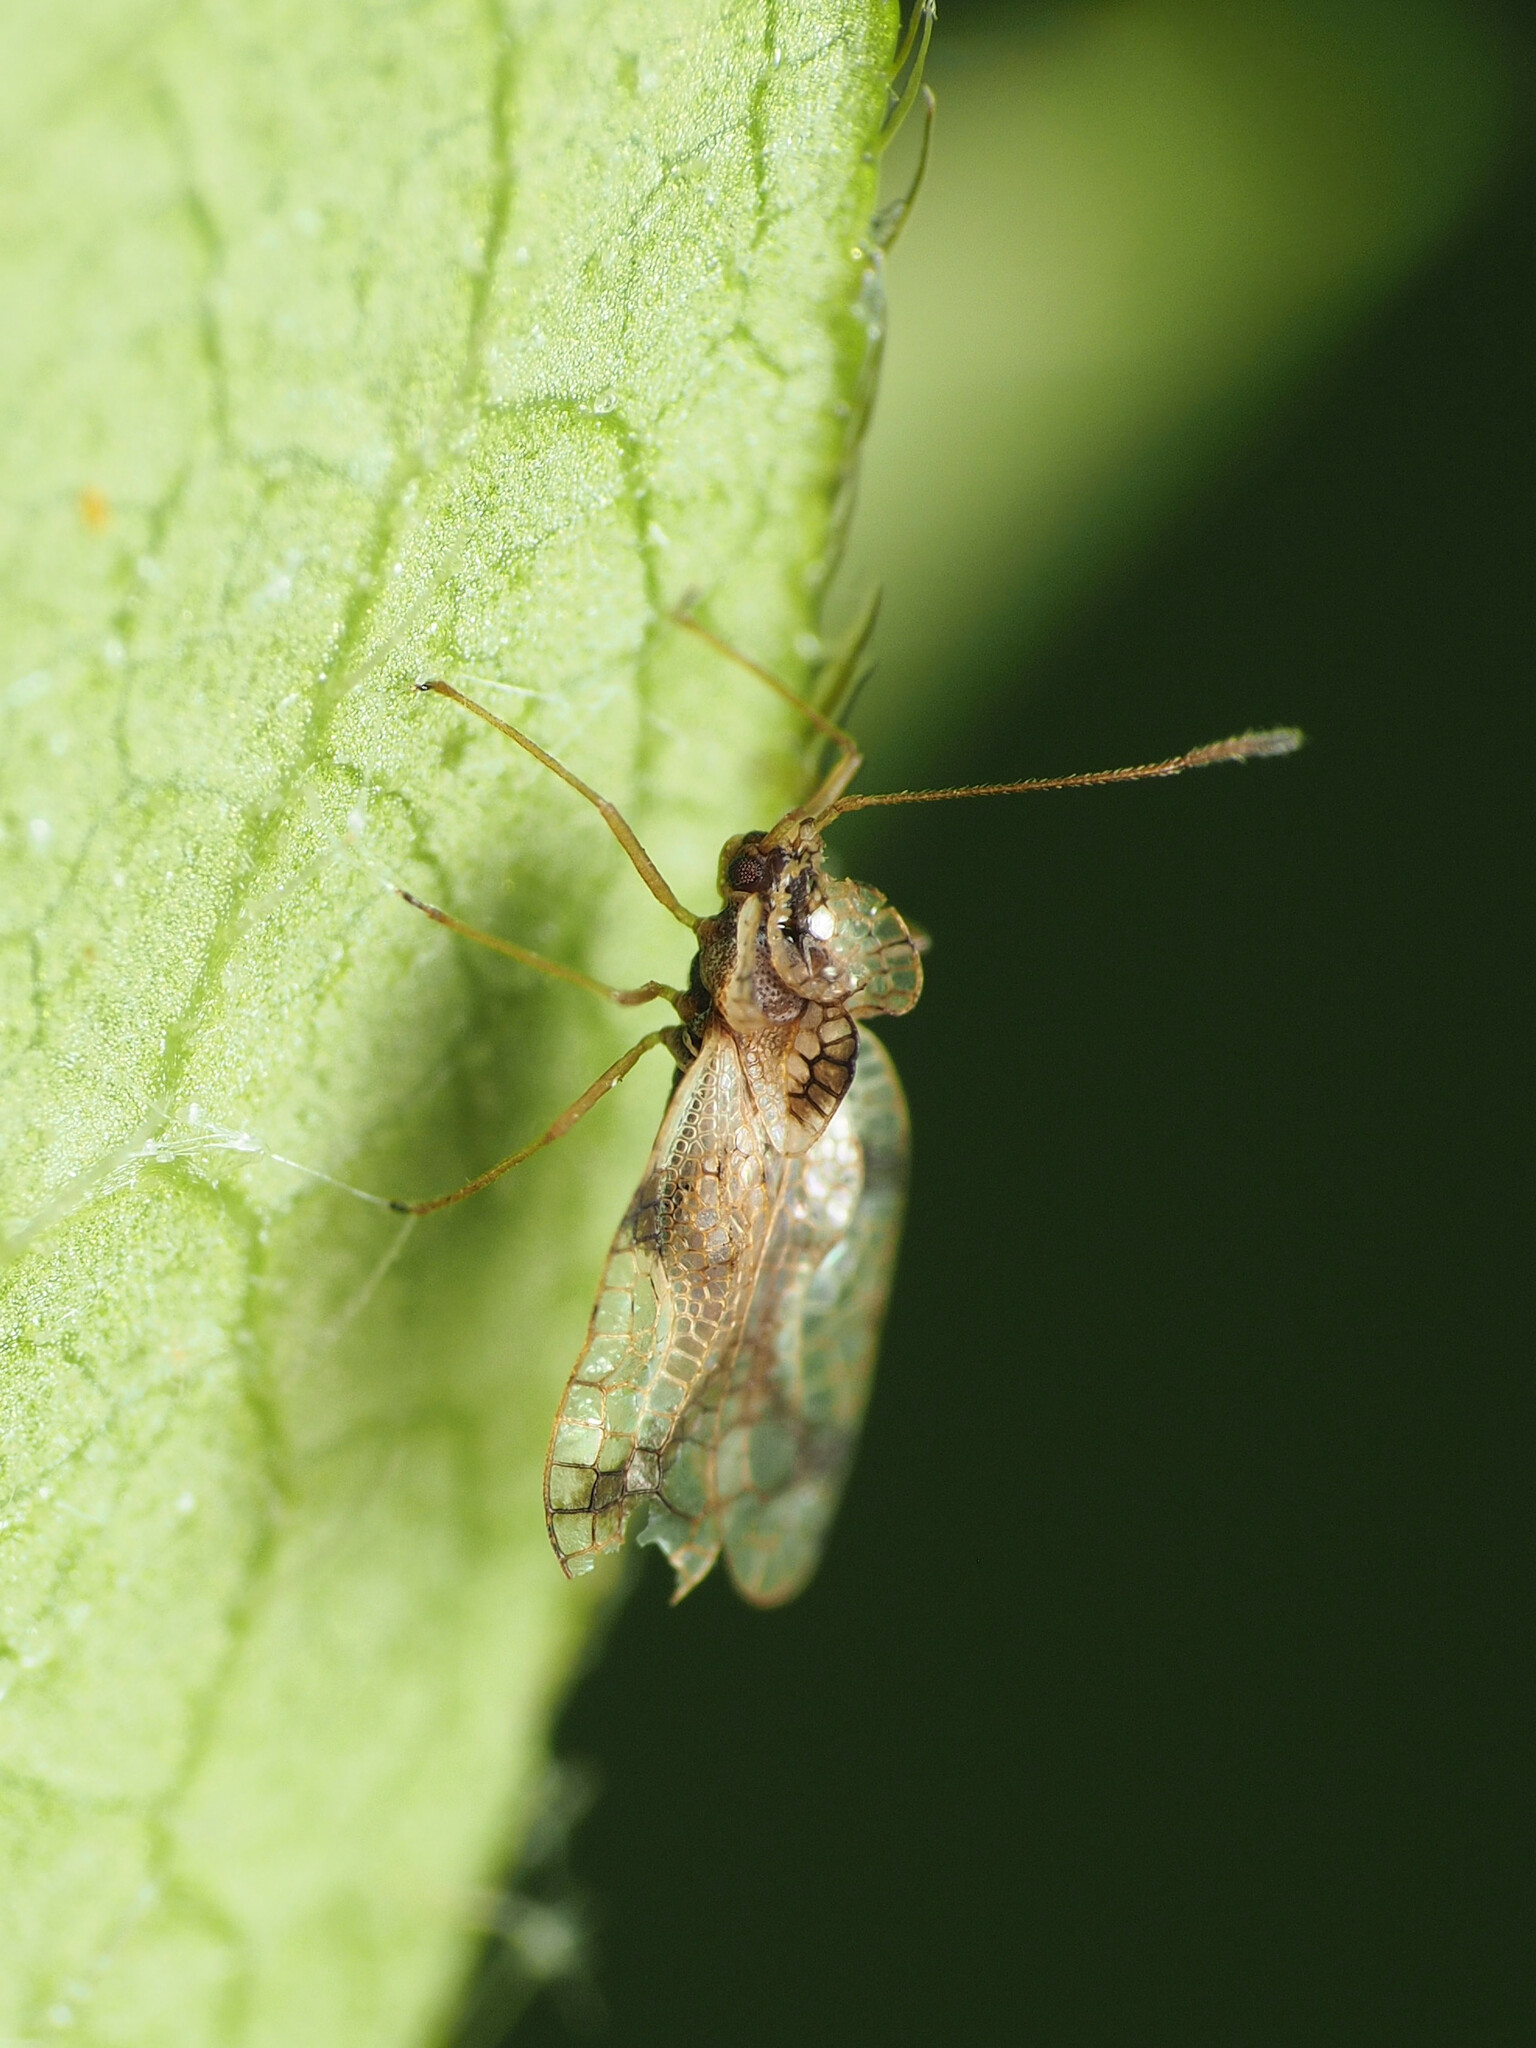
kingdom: Animalia
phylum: Arthropoda
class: Insecta
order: Hemiptera
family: Tingidae
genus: Stephanitis
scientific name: Stephanitis pyrioides
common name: Azalea lace bug
